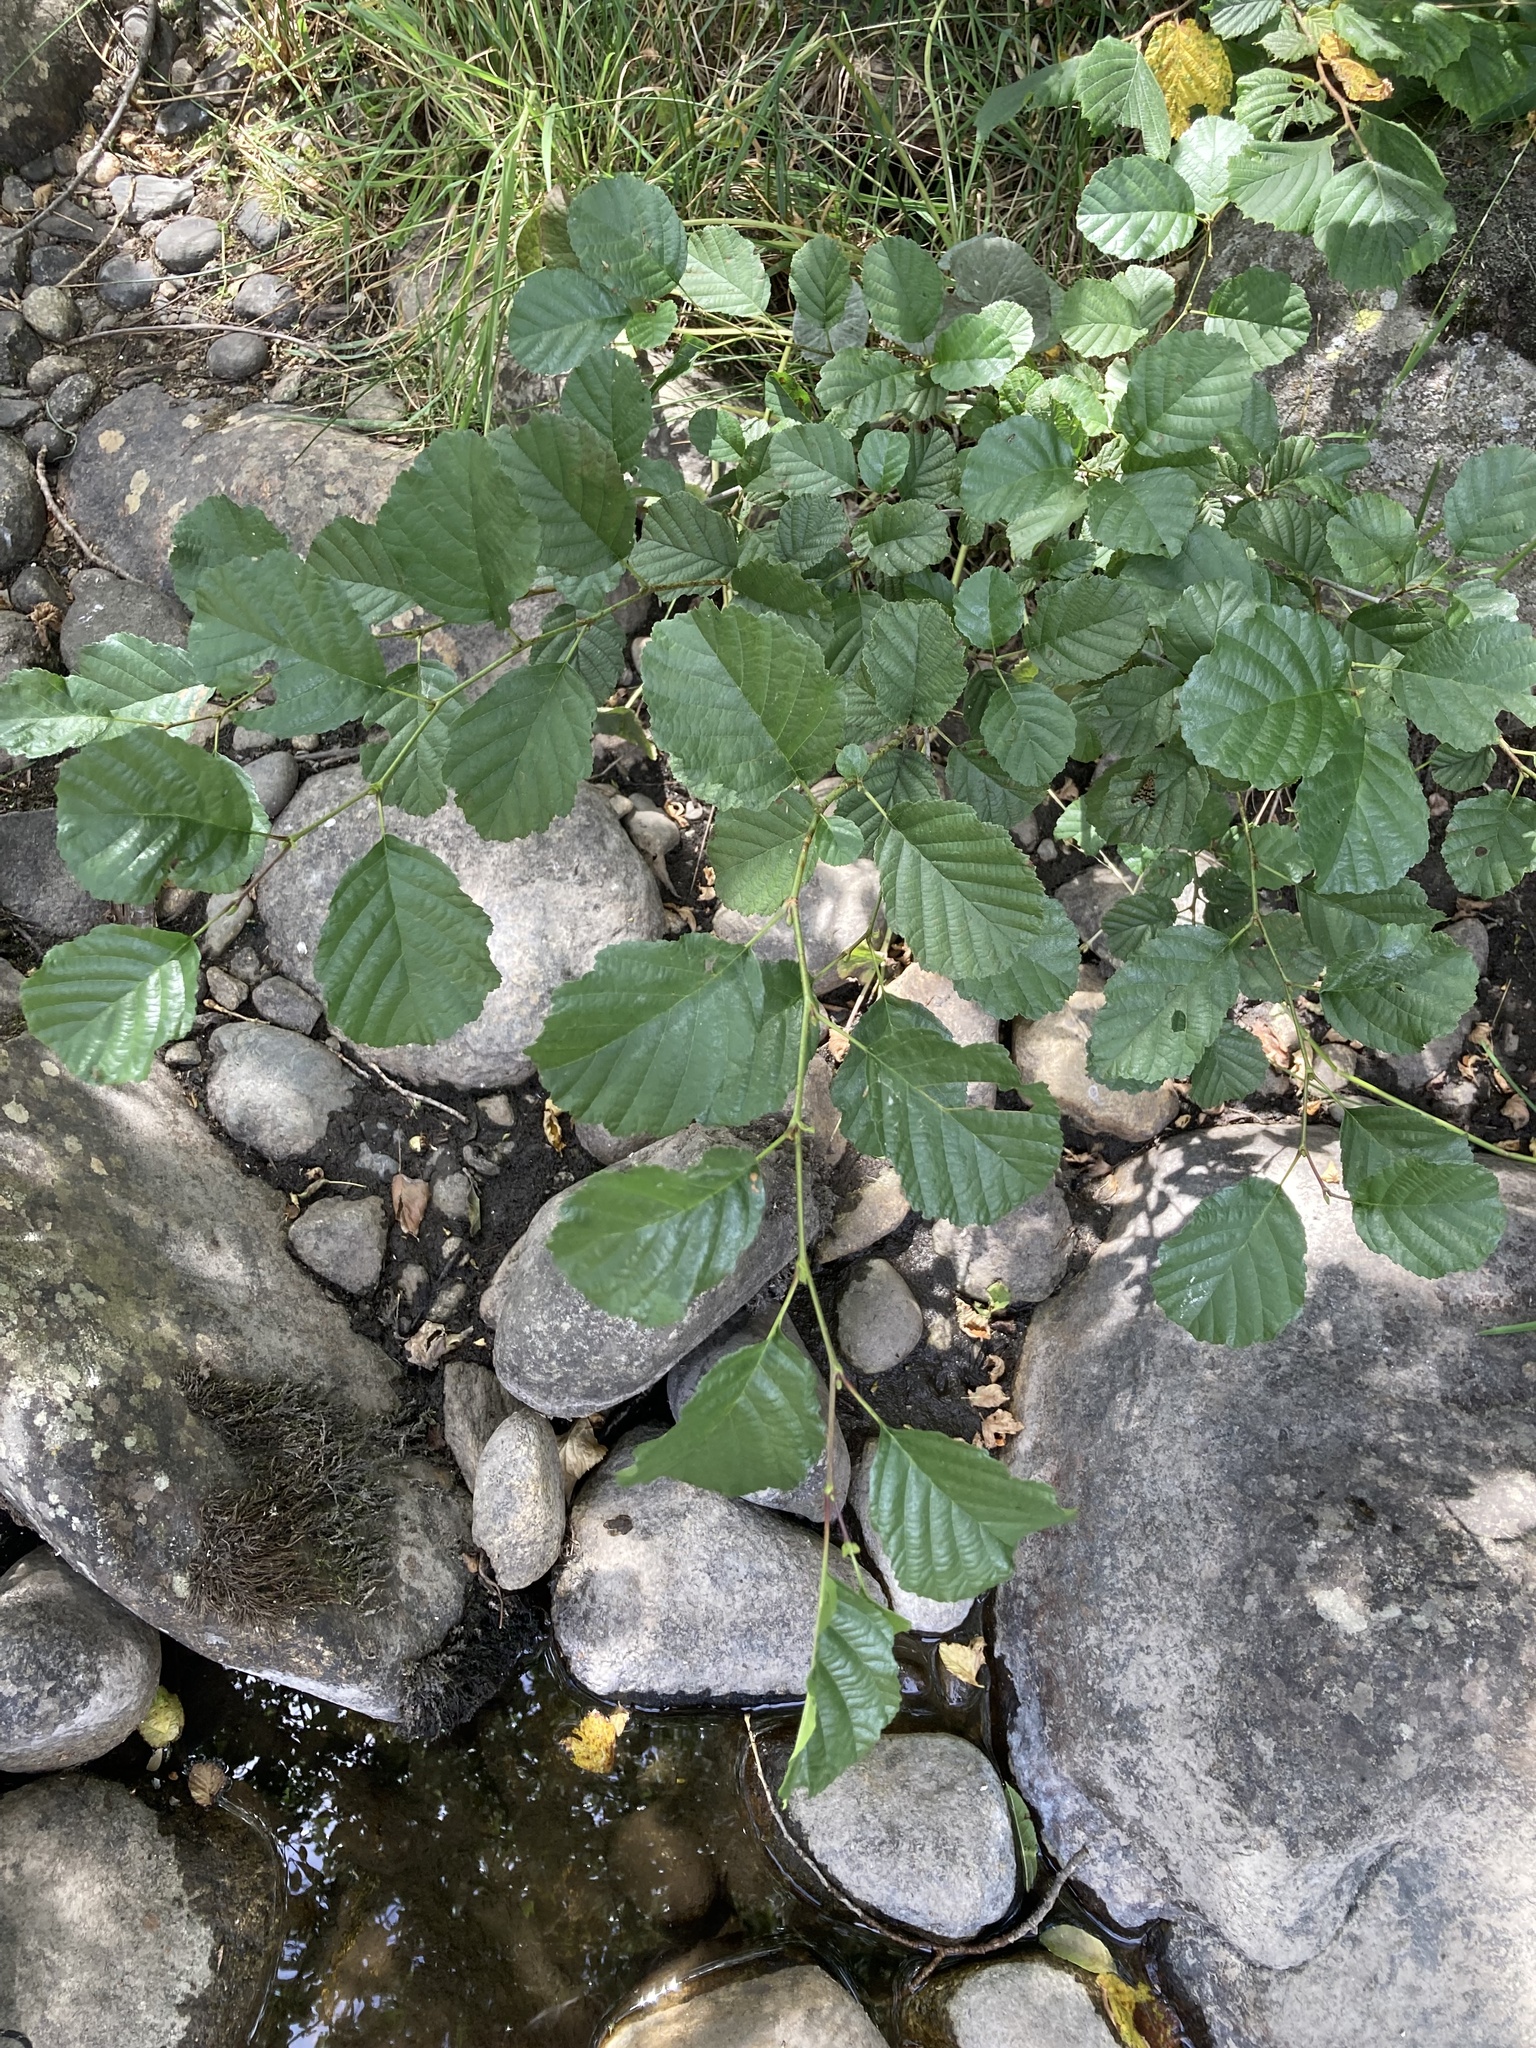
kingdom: Plantae
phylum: Tracheophyta
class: Magnoliopsida
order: Fagales
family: Betulaceae
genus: Alnus
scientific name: Alnus glutinosa
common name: Black alder
